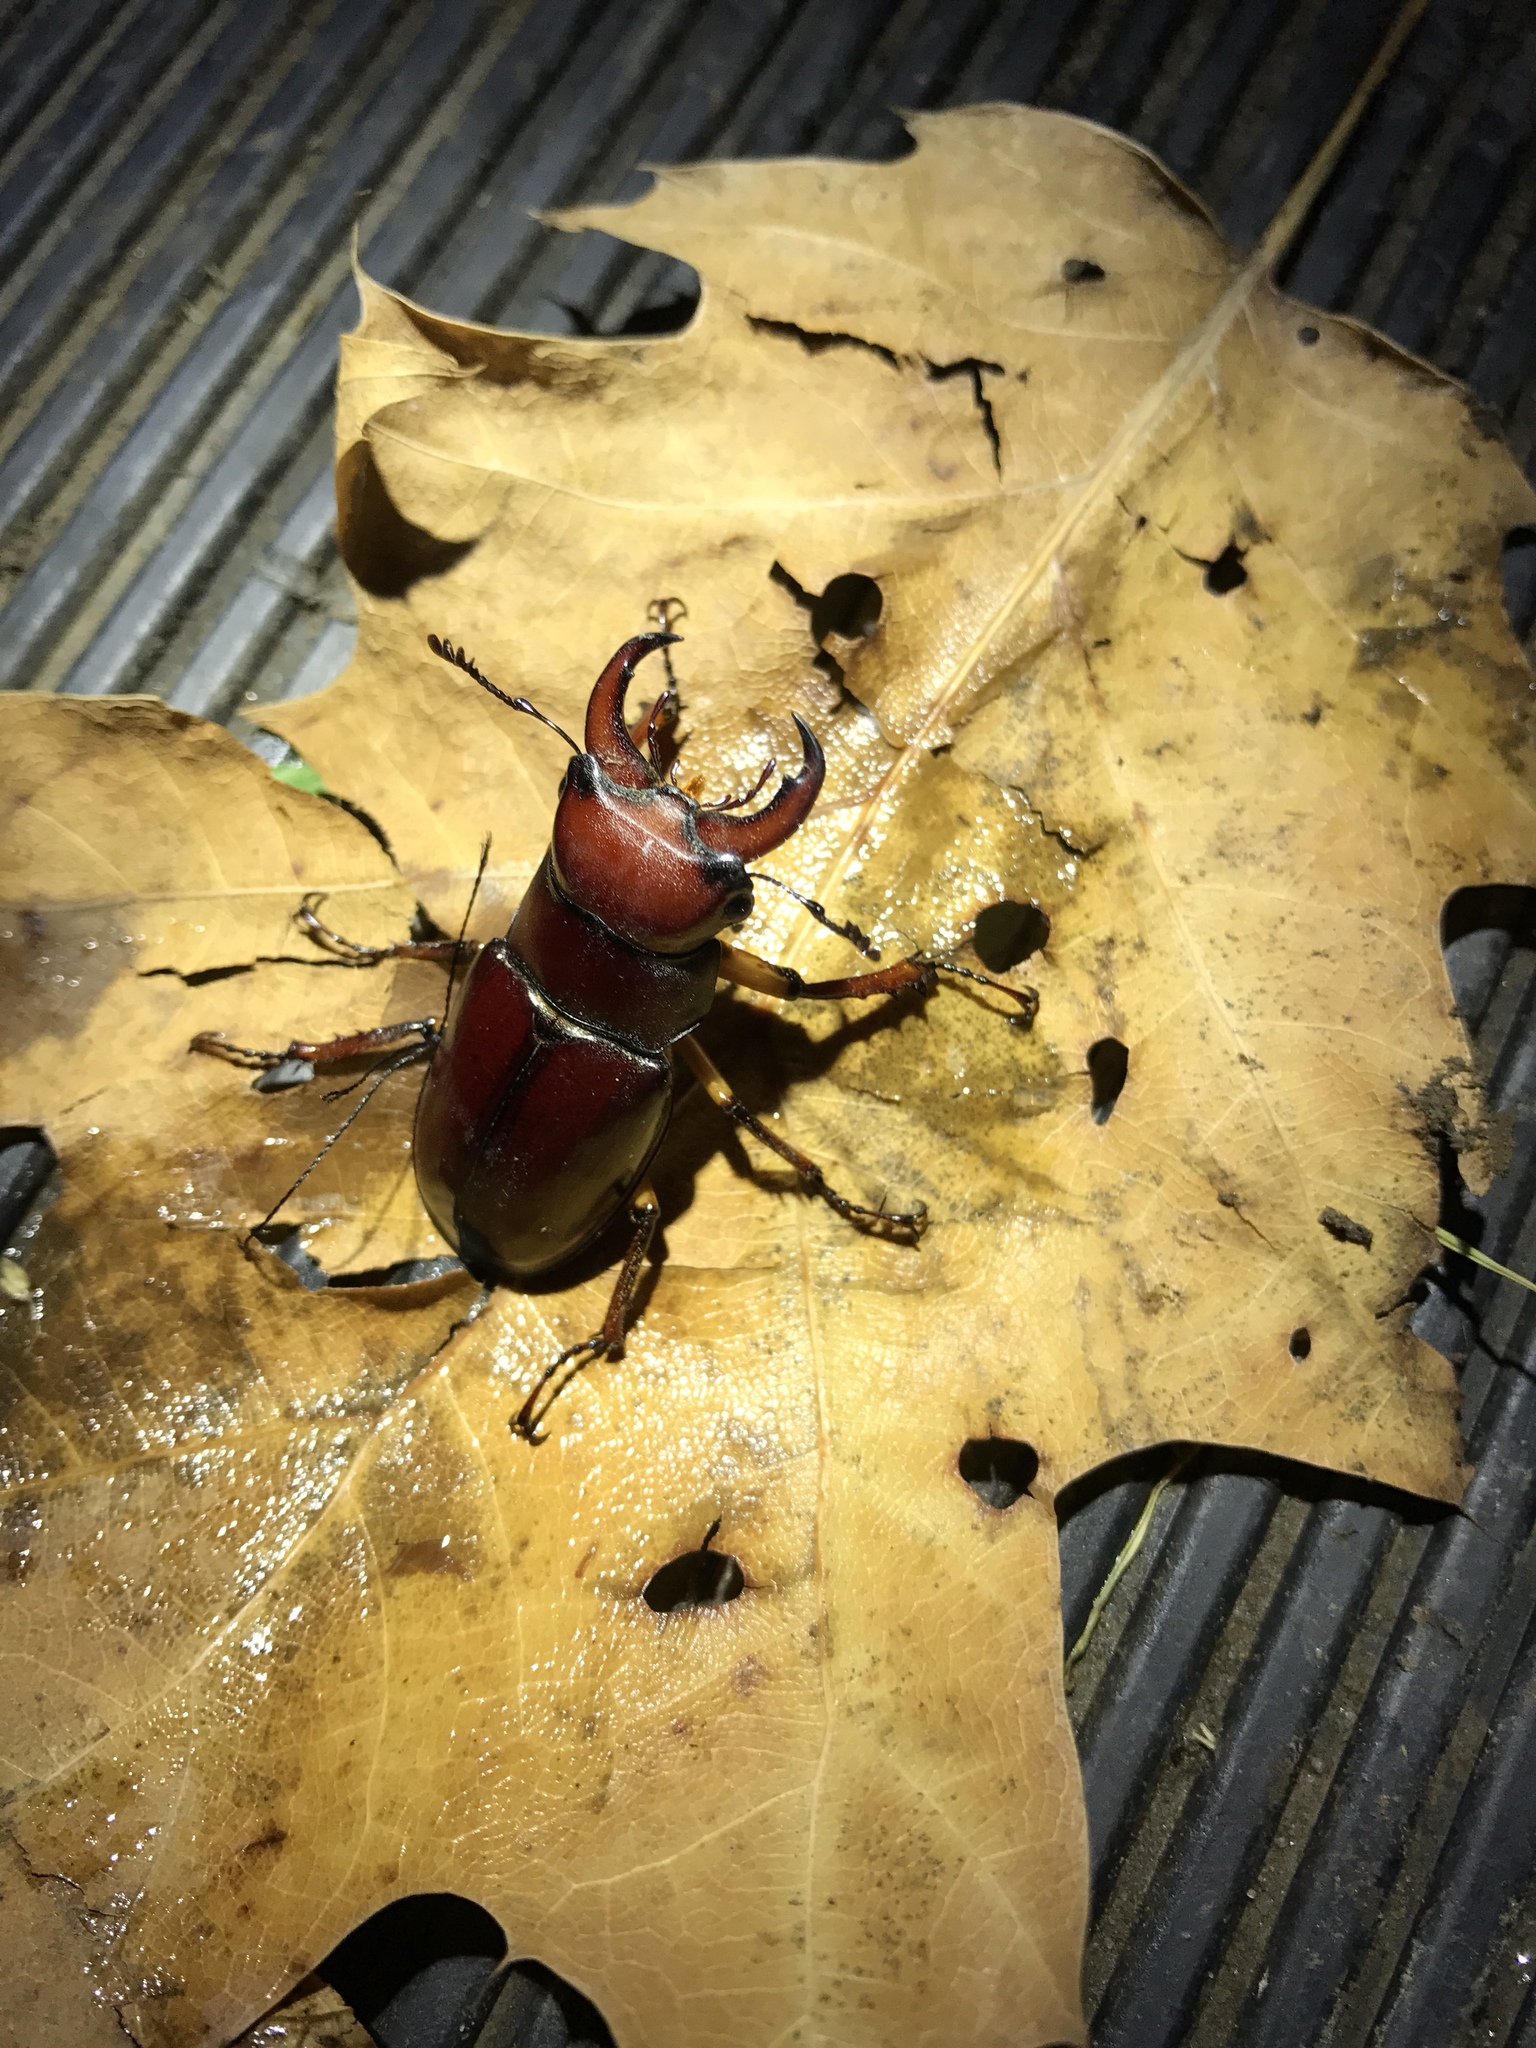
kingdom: Animalia
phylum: Arthropoda
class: Insecta
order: Coleoptera
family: Lucanidae
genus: Lucanus
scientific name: Lucanus capreolus
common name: Stag beetle
